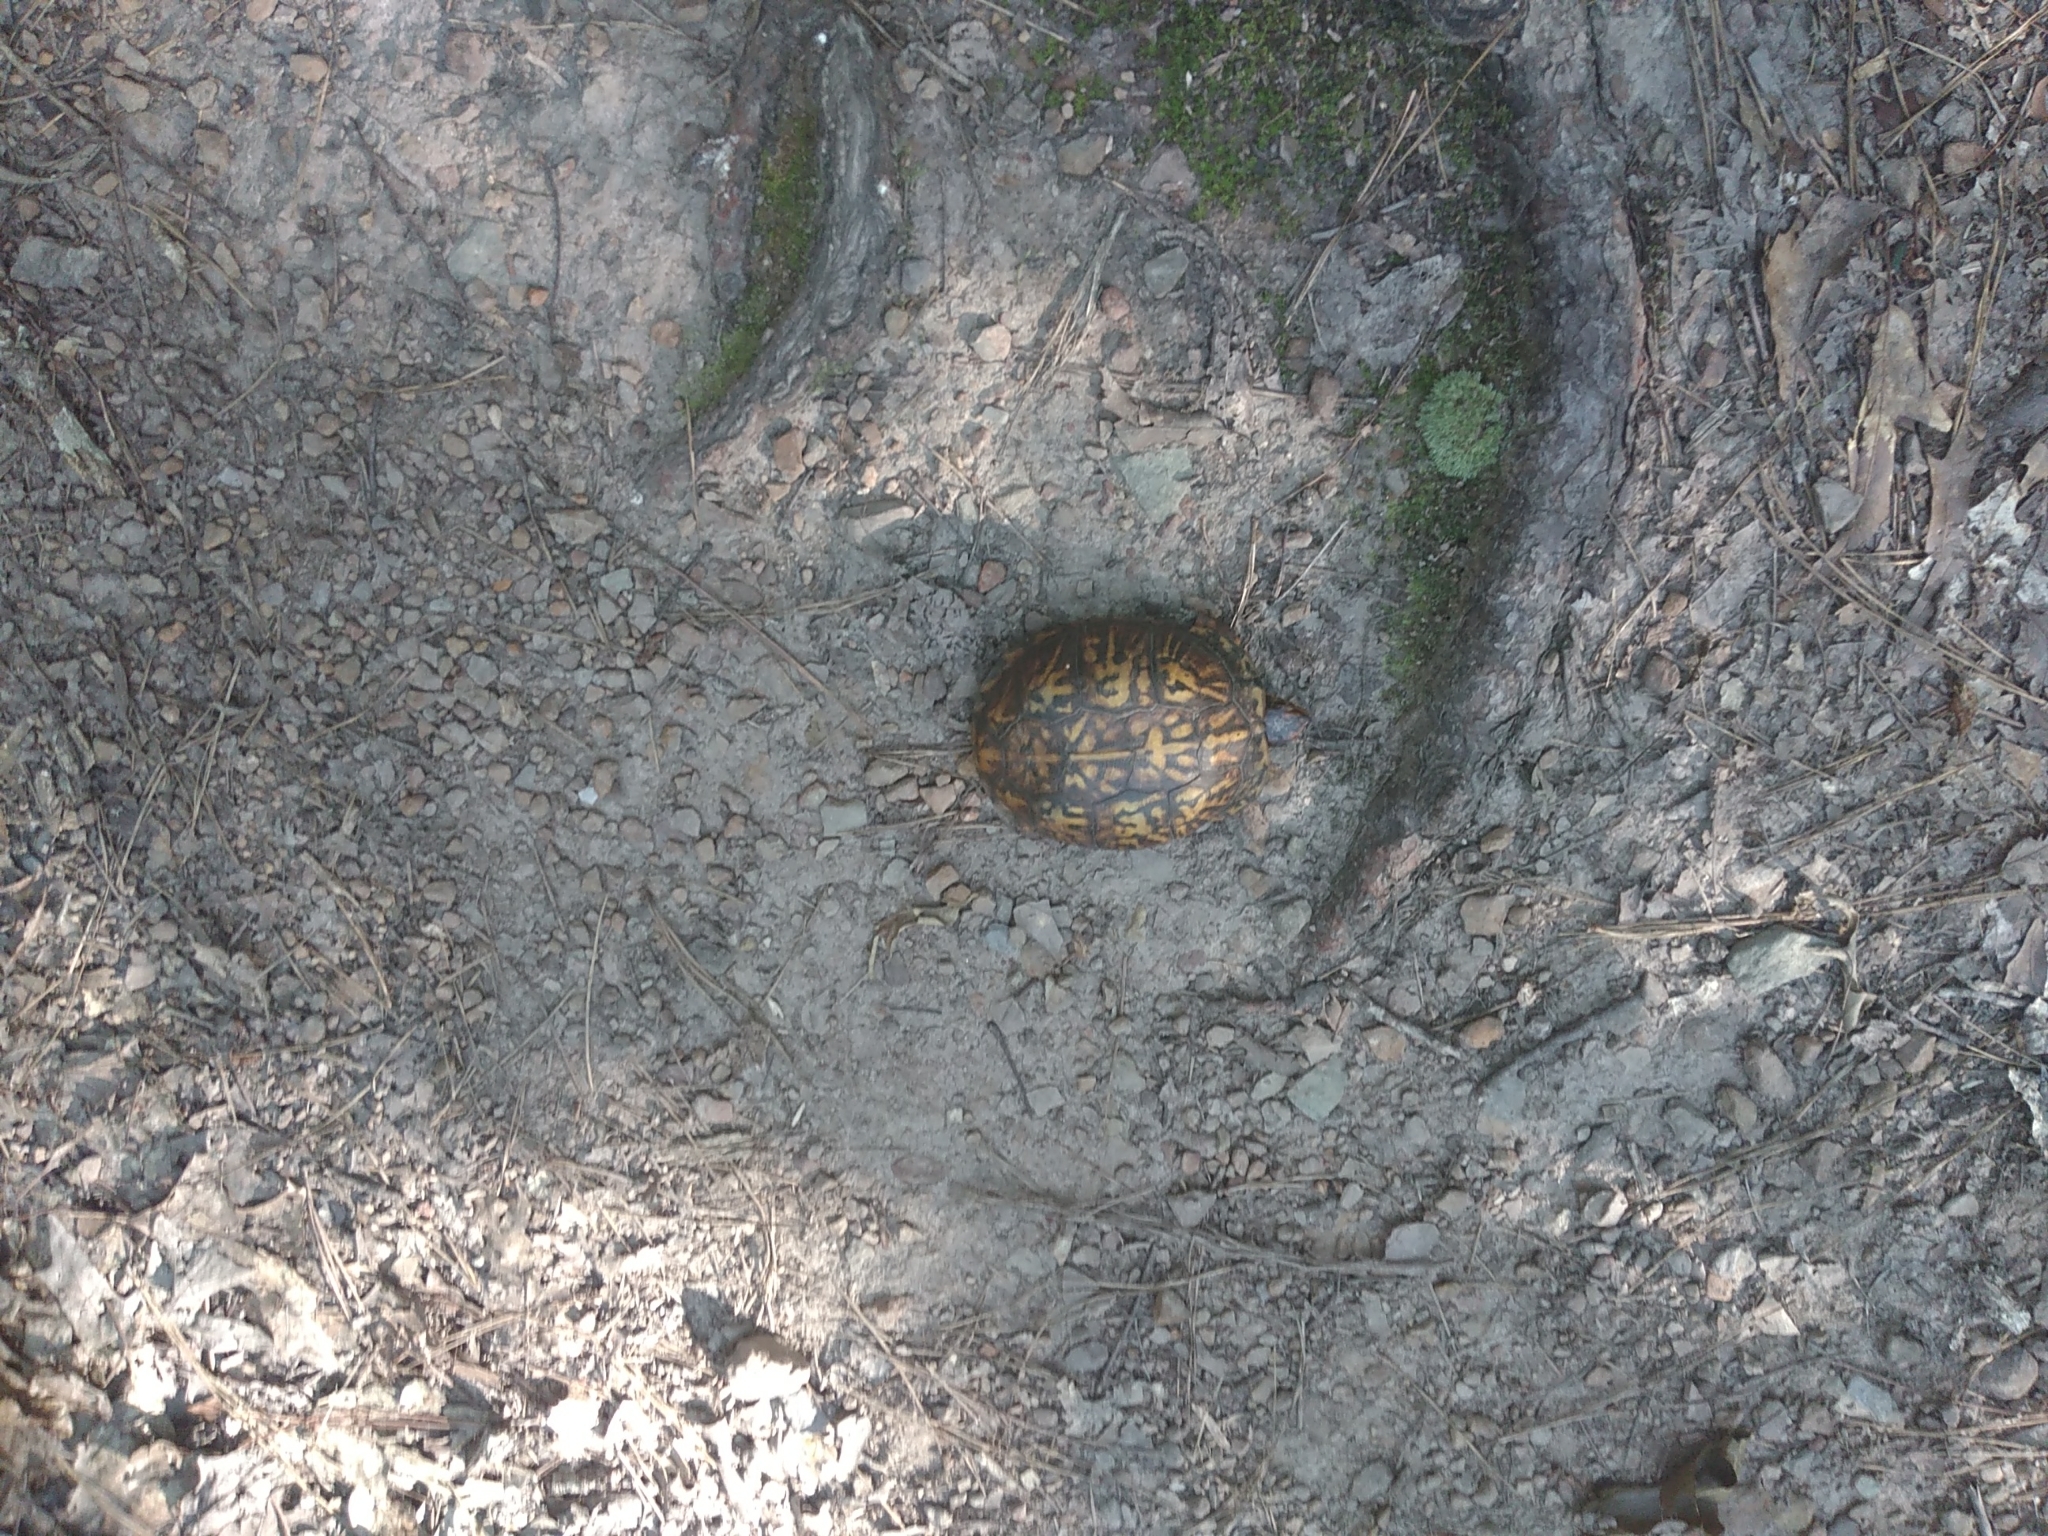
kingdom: Animalia
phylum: Chordata
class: Testudines
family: Emydidae
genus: Terrapene
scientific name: Terrapene carolina
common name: Common box turtle
